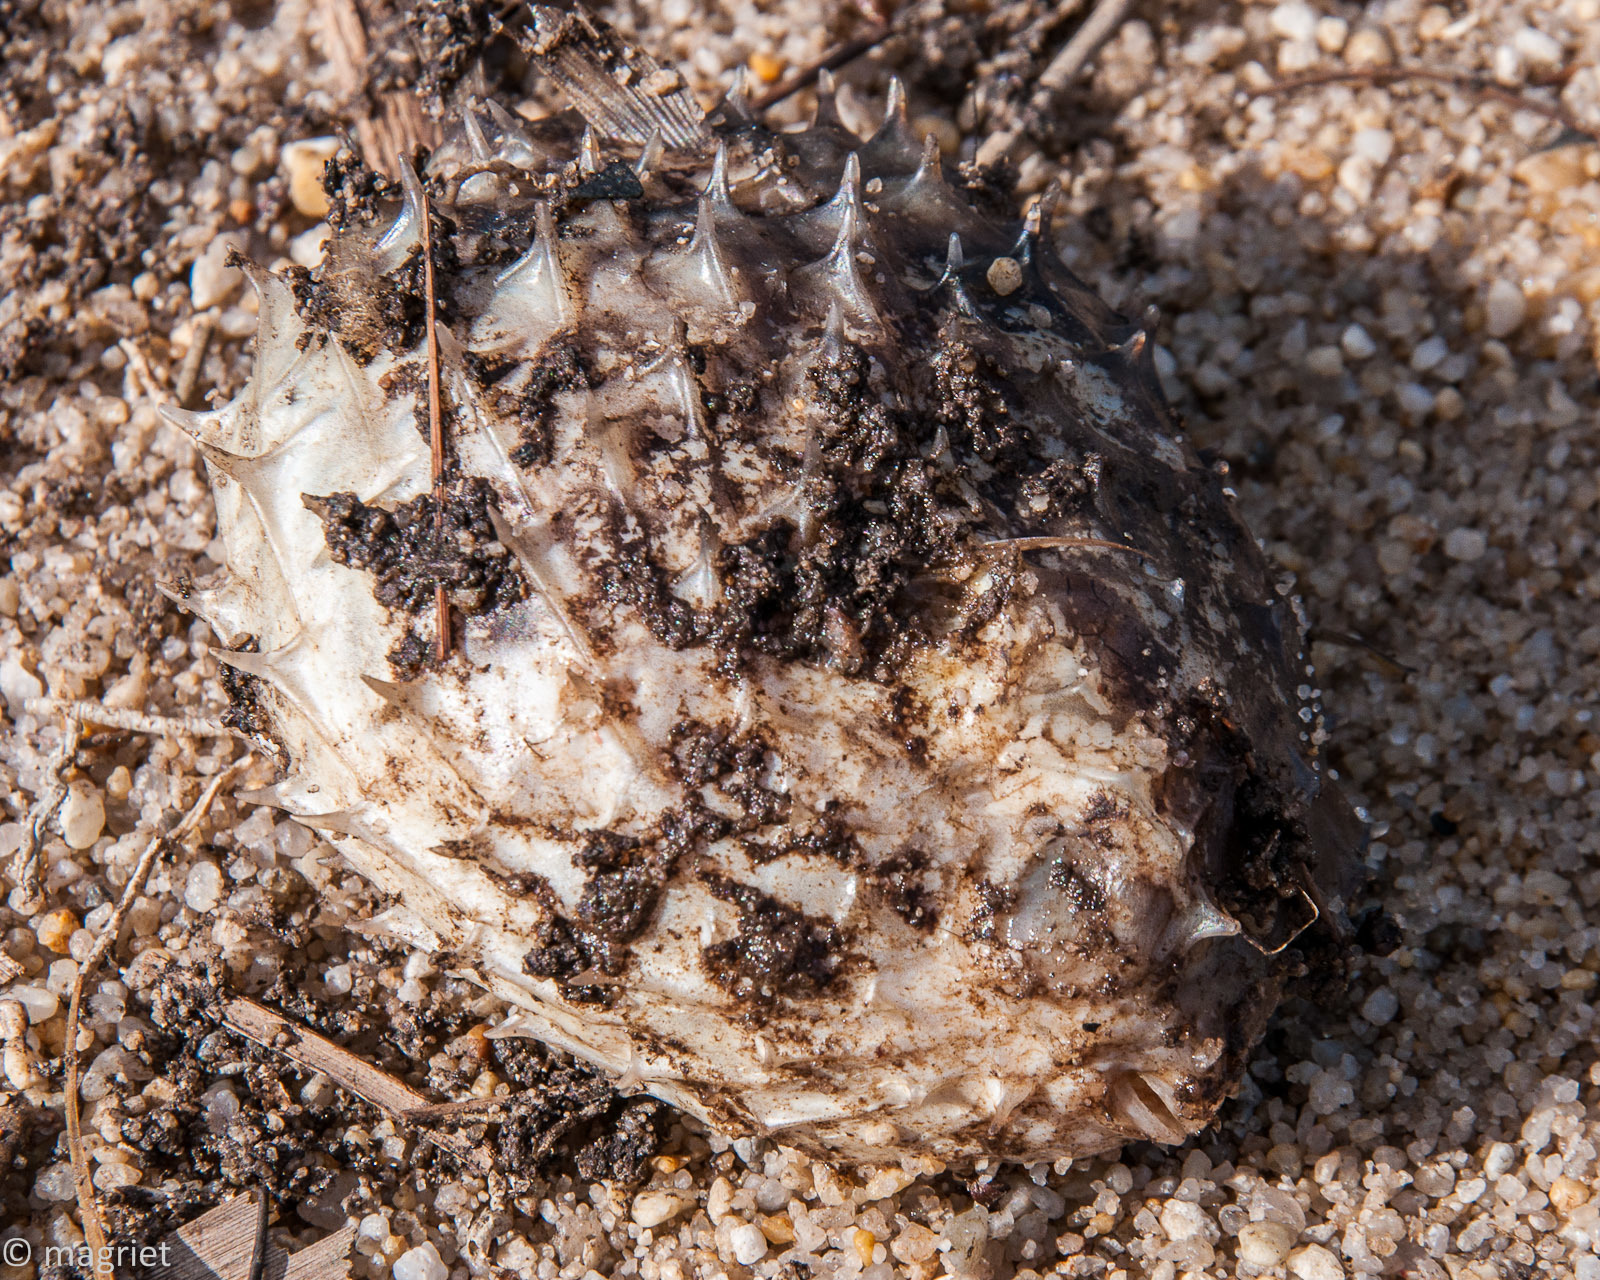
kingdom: Animalia
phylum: Chordata
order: Tetraodontiformes
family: Diodontidae
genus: Cyclichthys
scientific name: Cyclichthys orbicularis
